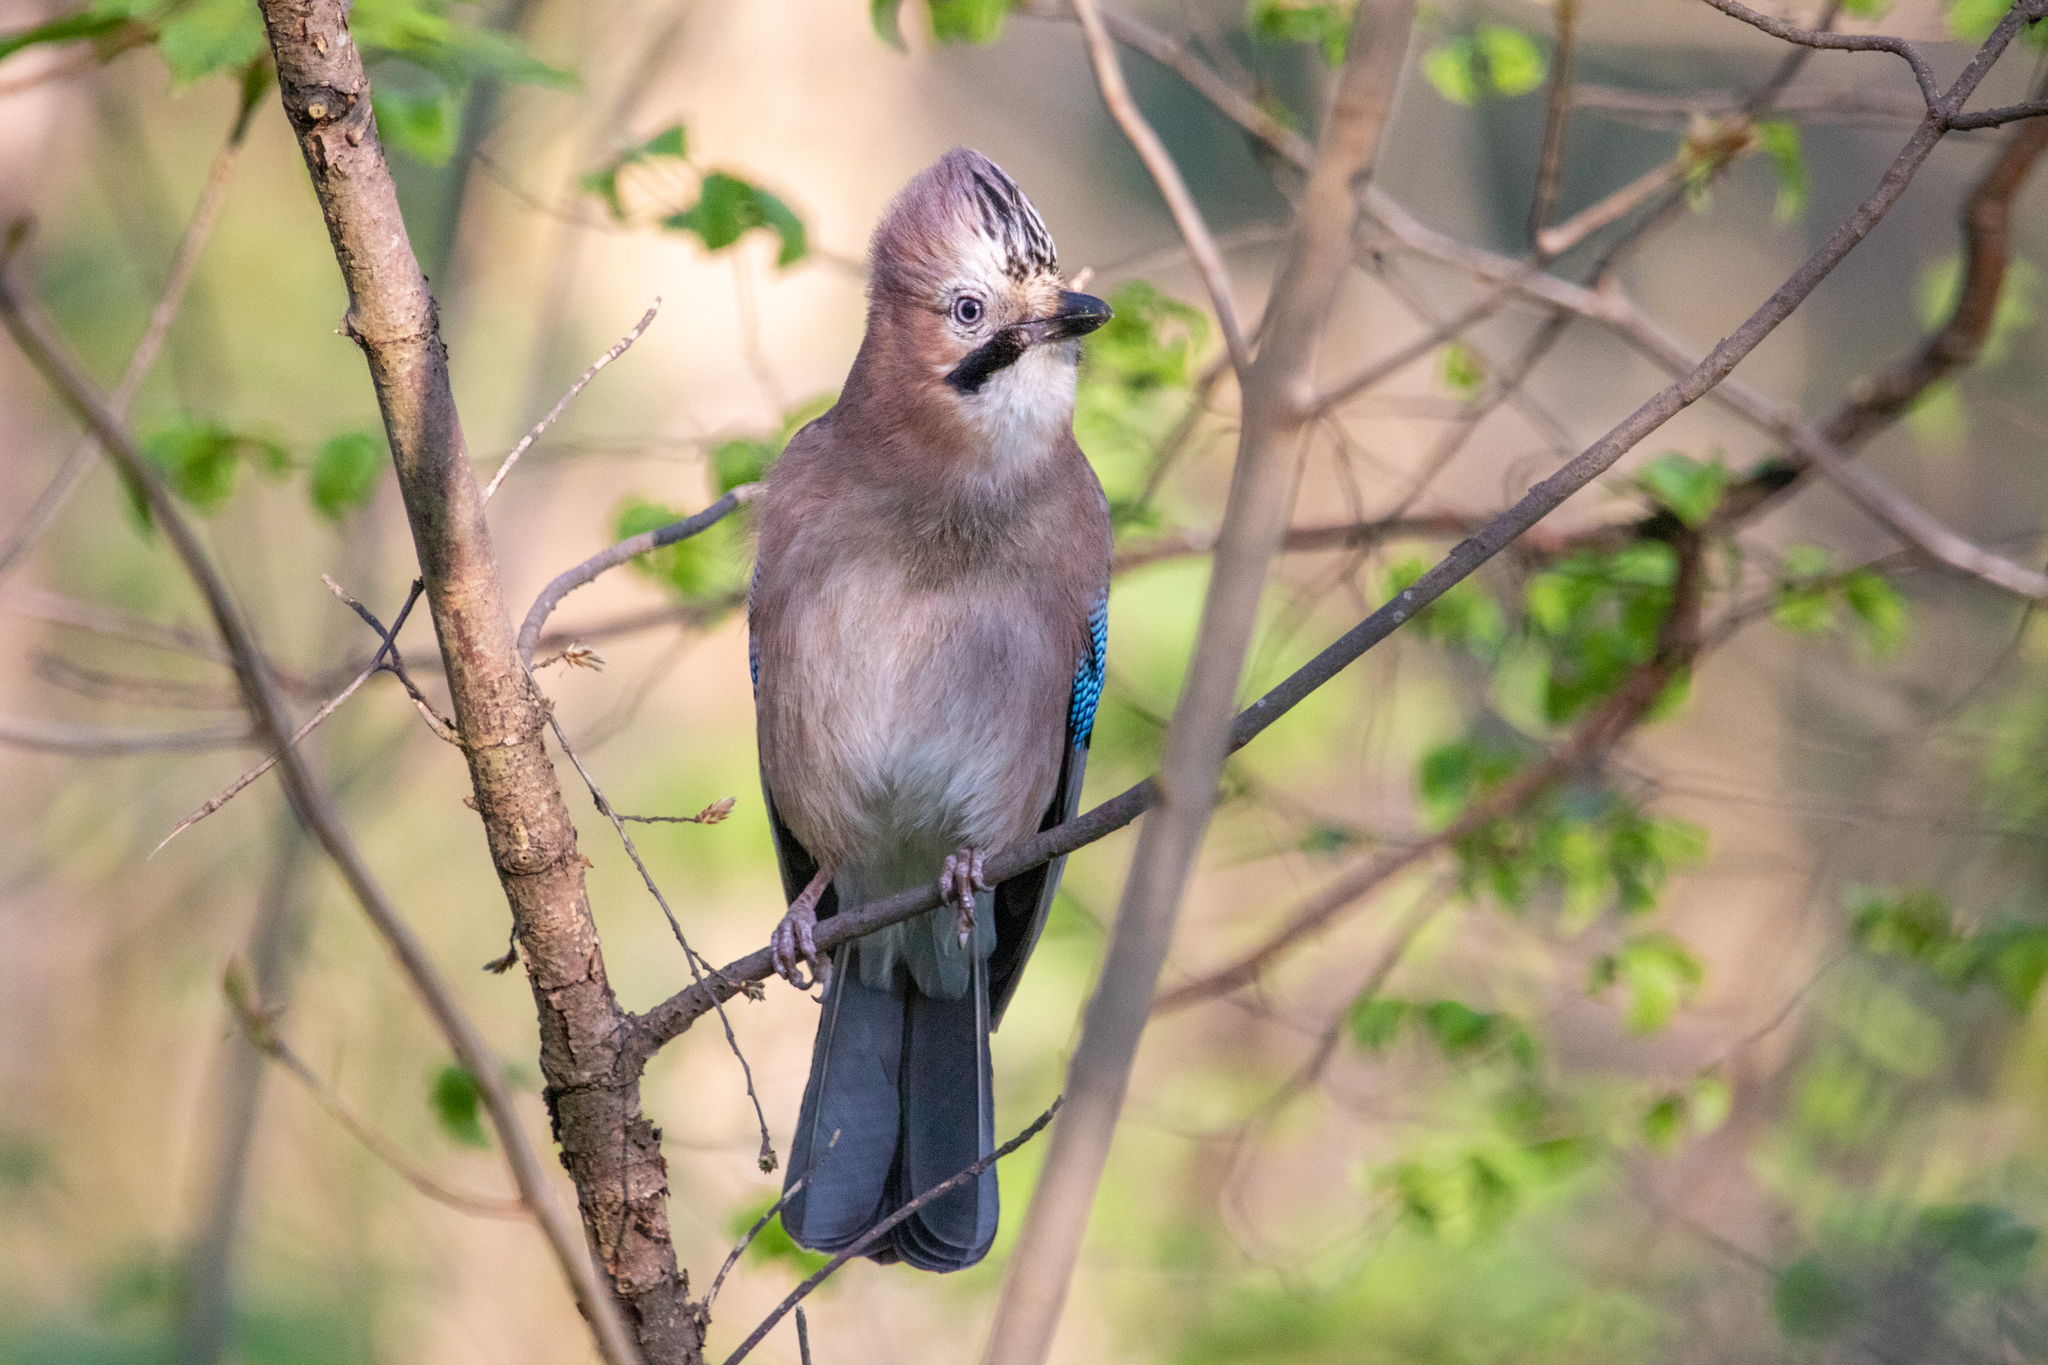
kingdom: Animalia
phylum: Chordata
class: Aves
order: Passeriformes
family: Corvidae
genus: Garrulus
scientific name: Garrulus glandarius
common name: Eurasian jay
